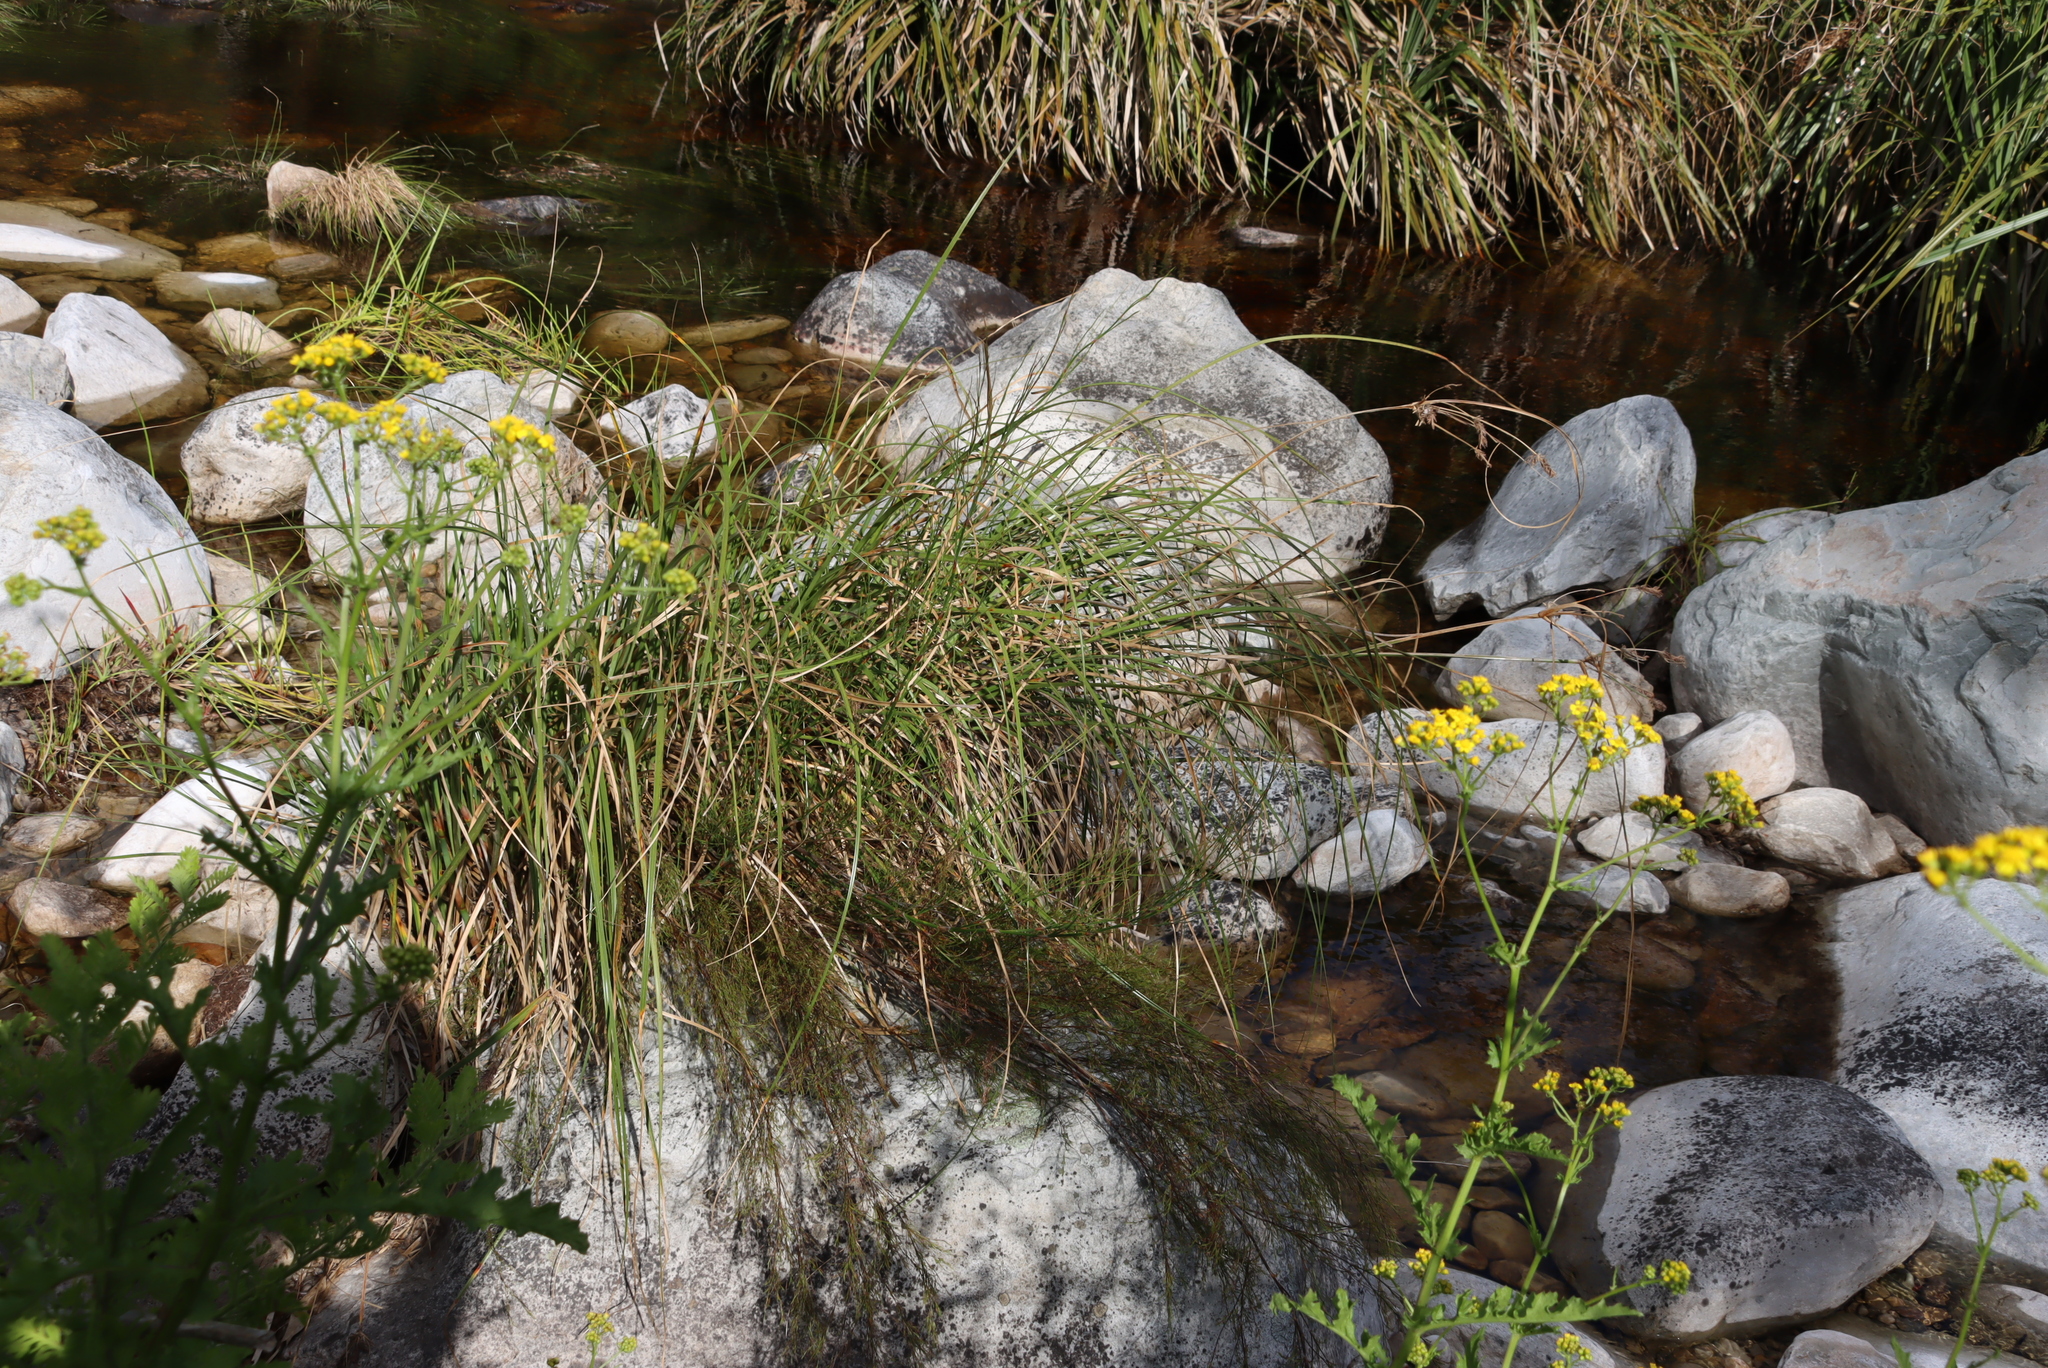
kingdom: Plantae
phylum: Tracheophyta
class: Liliopsida
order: Poales
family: Cyperaceae
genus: Cyperus
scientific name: Cyperus thunbergii
